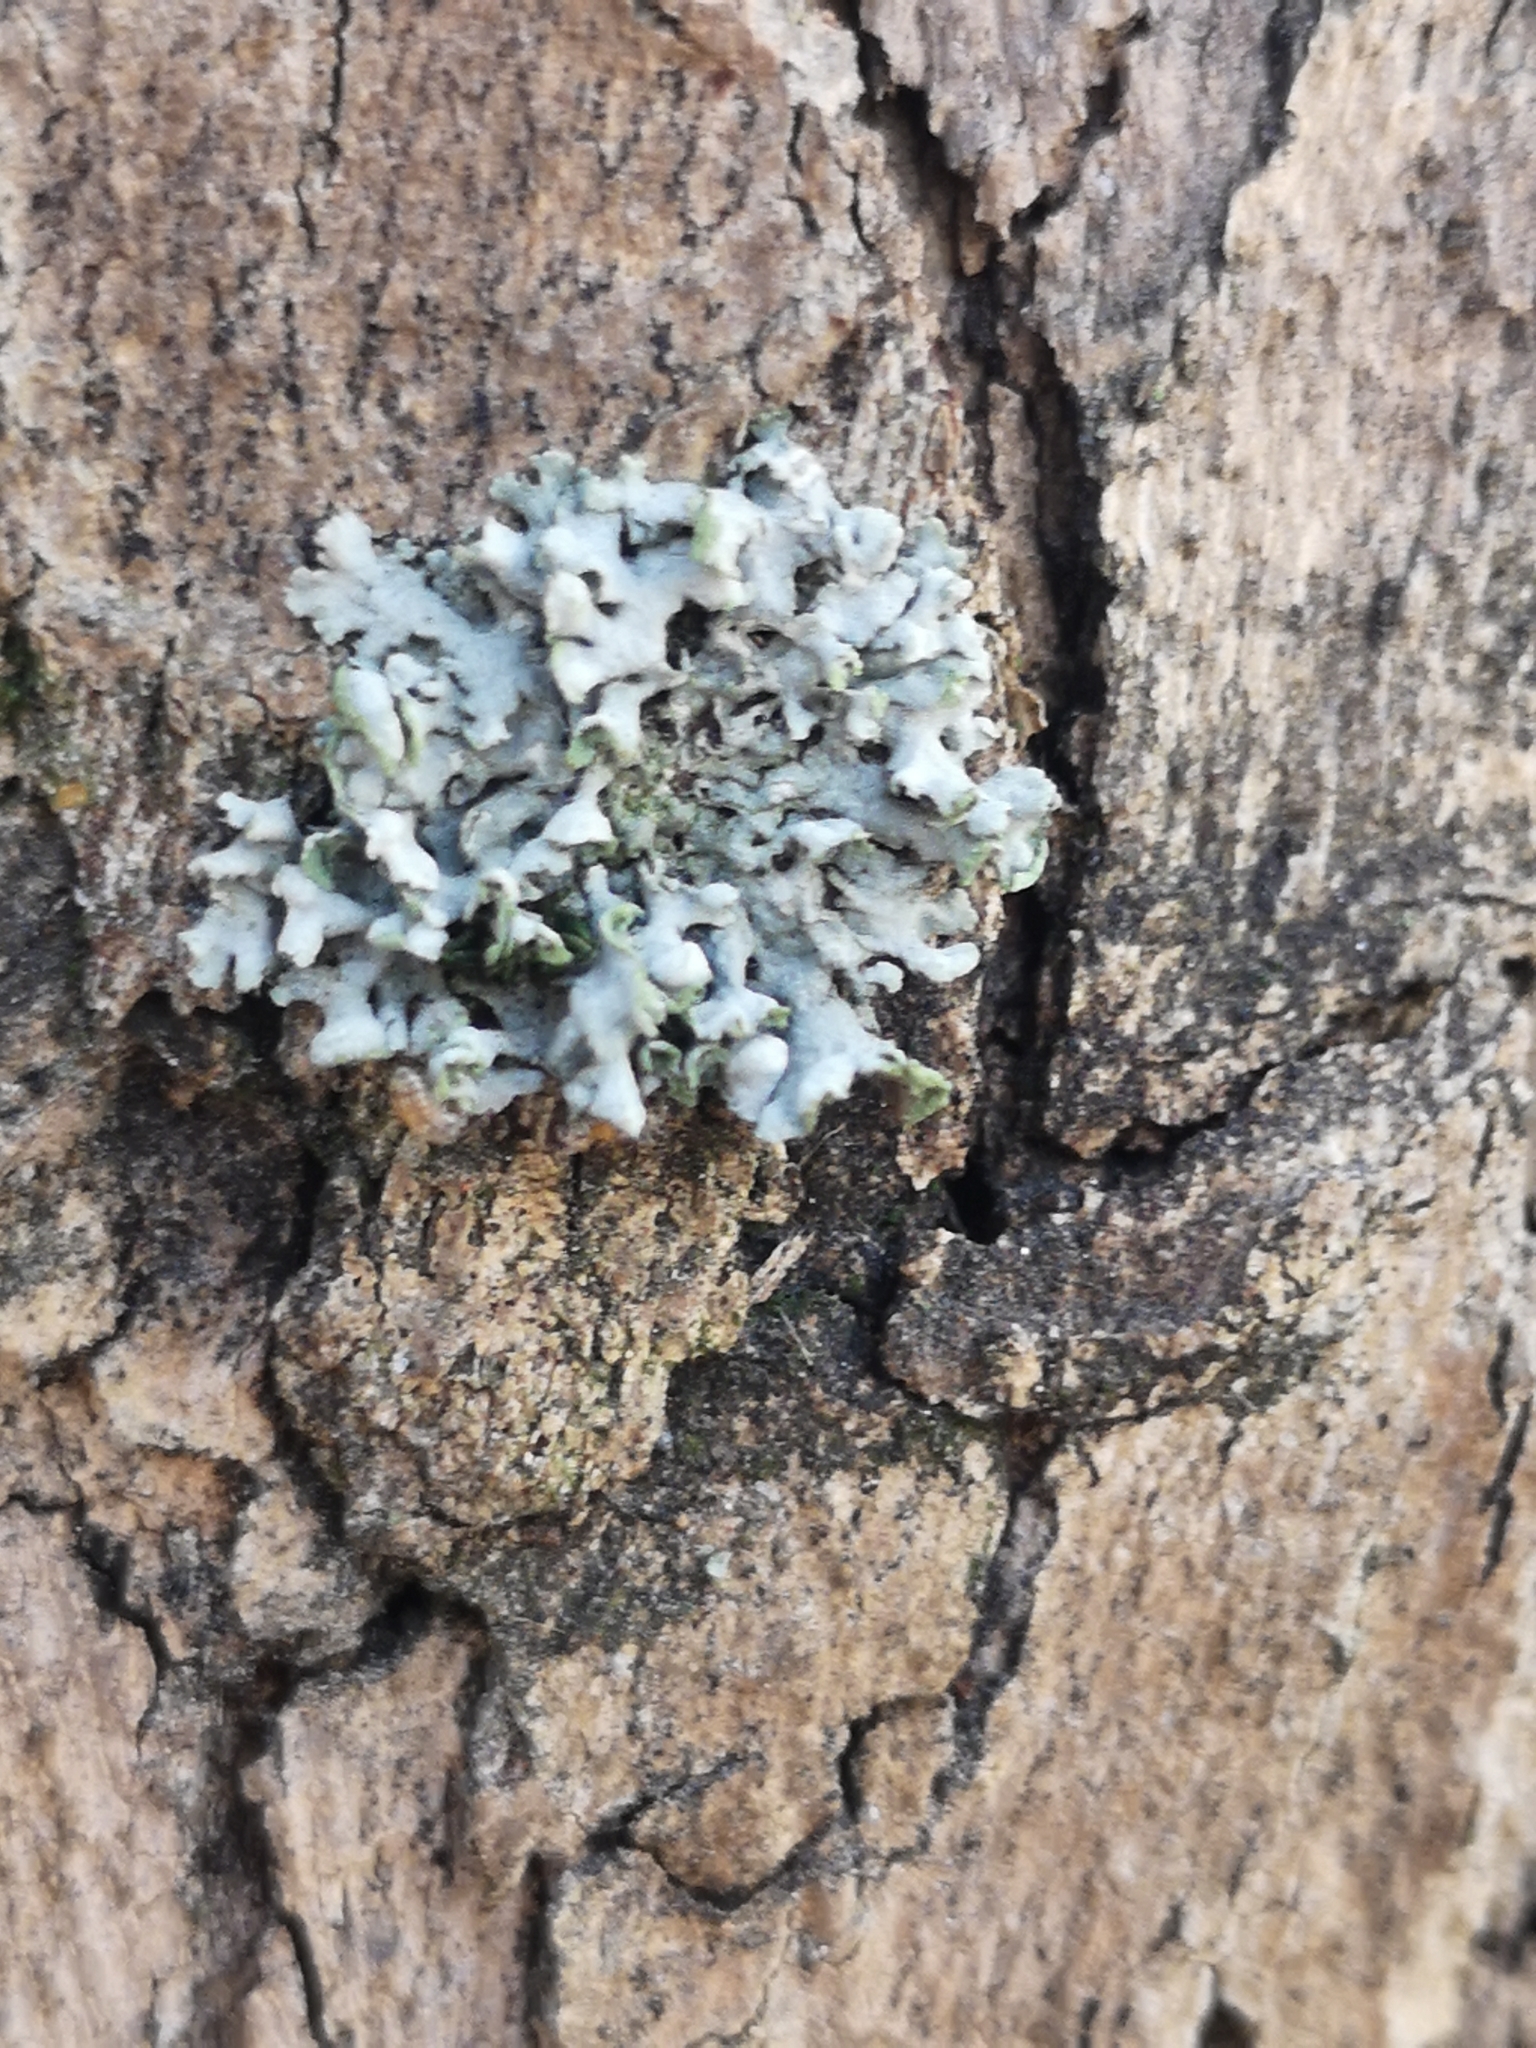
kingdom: Fungi
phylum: Ascomycota
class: Lecanoromycetes
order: Caliciales
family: Physciaceae
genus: Physcia
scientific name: Physcia adscendens
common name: Hooded rosette lichen
